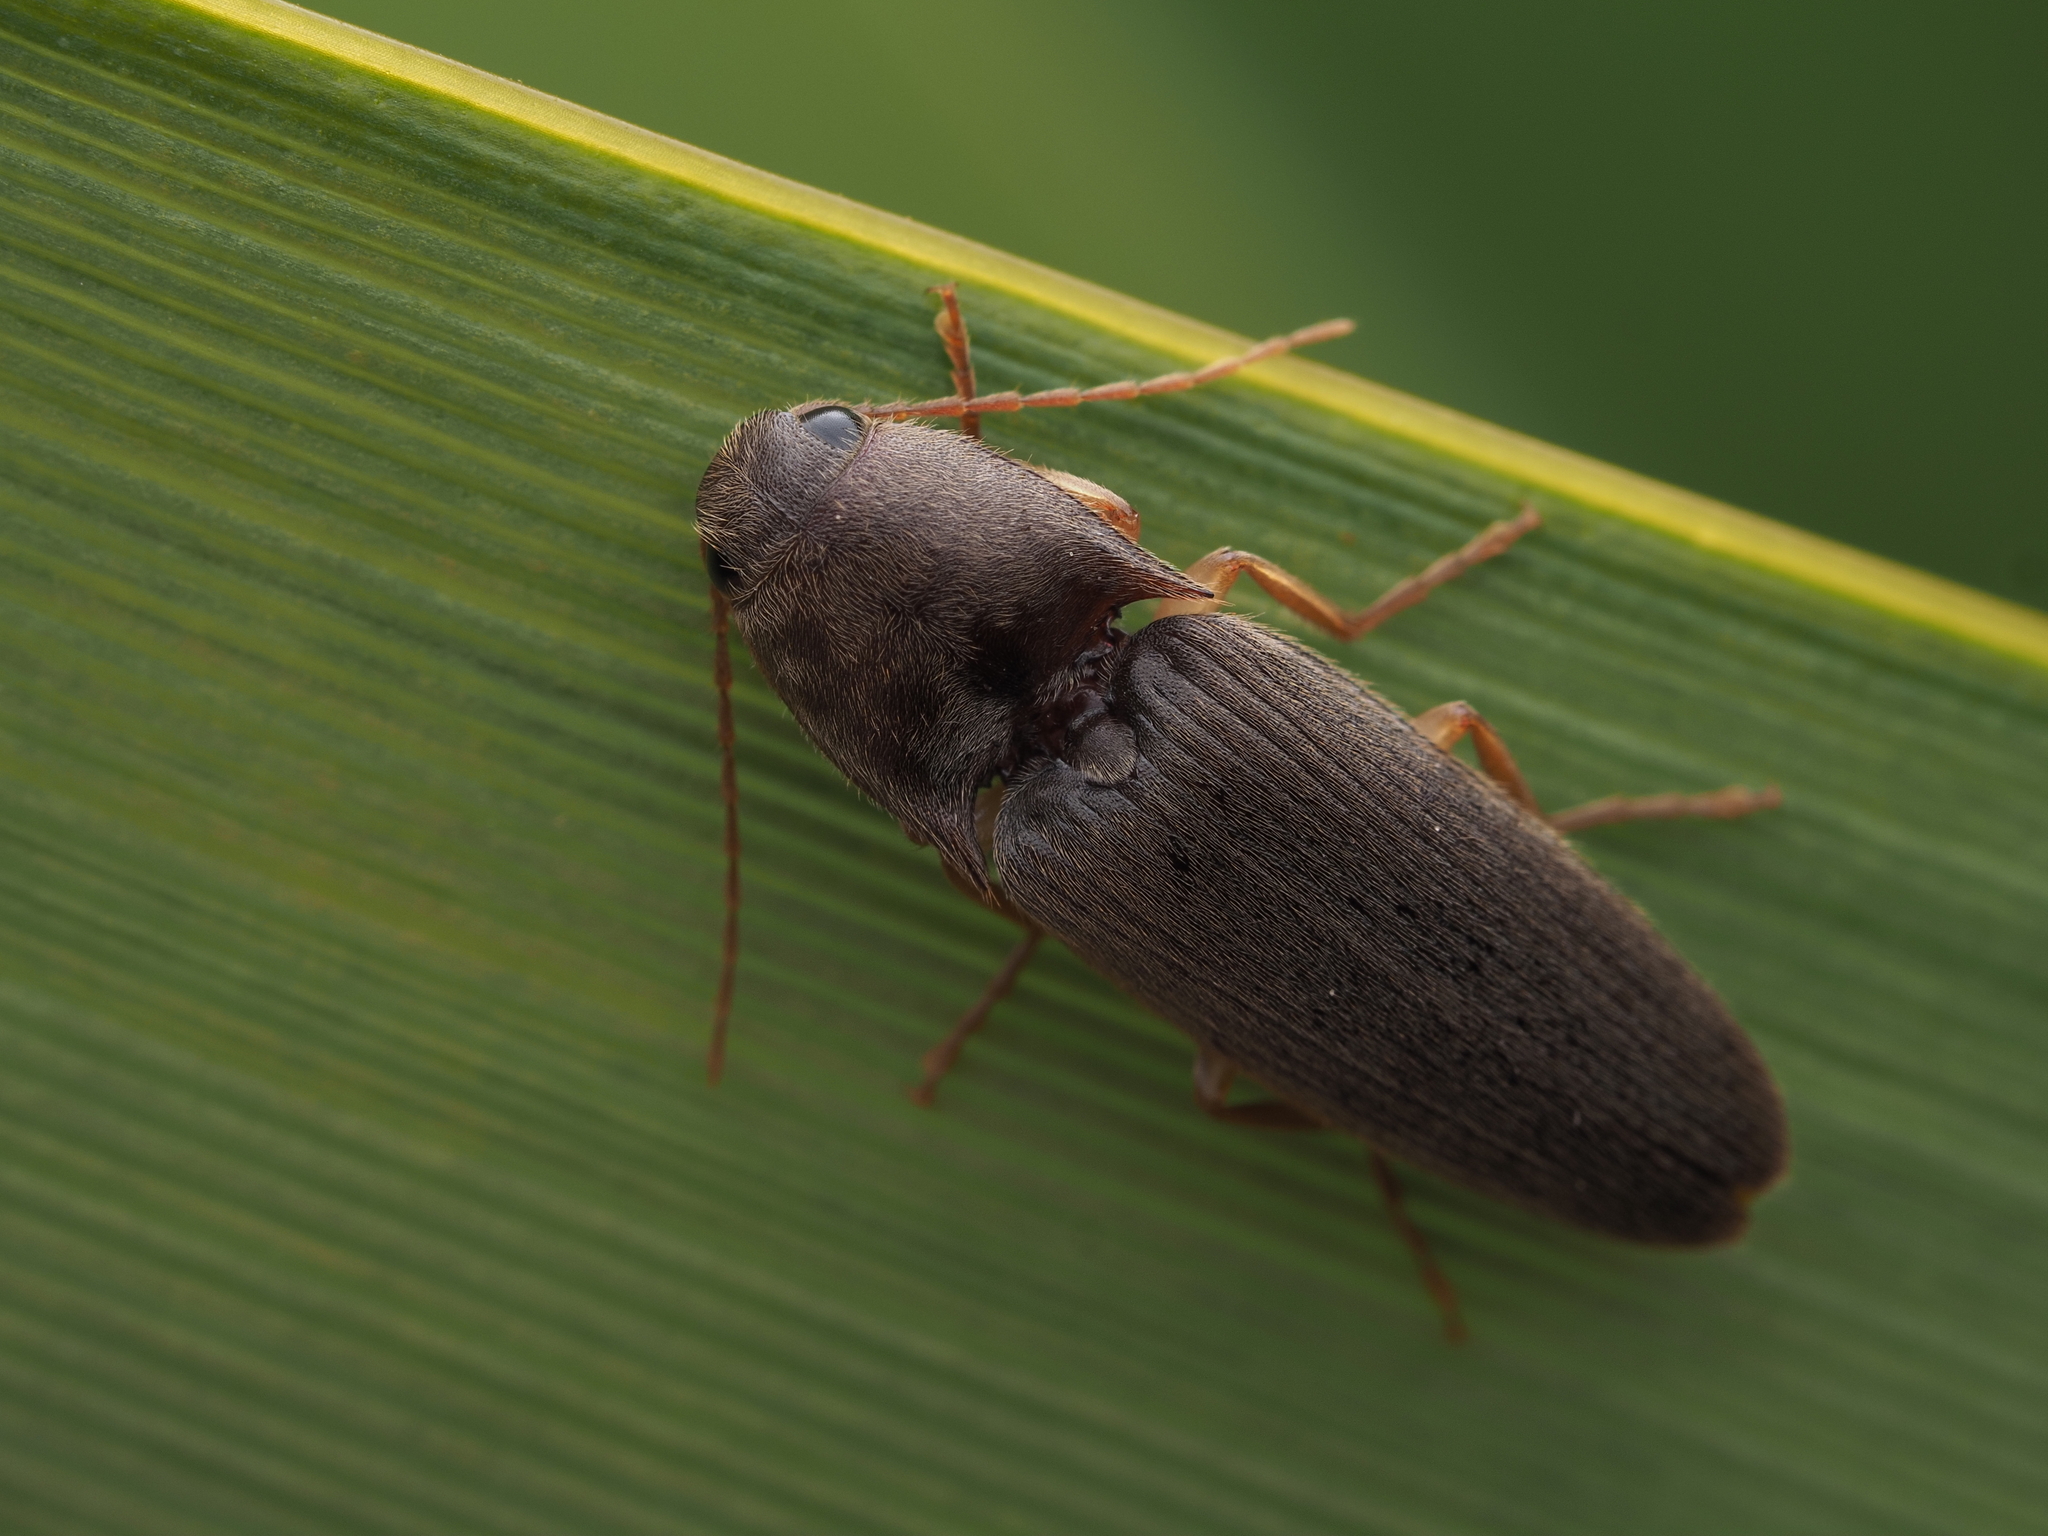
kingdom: Animalia
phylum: Arthropoda
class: Insecta
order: Coleoptera
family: Elateridae
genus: Conoderus
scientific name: Conoderus exsul
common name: Click beetle
